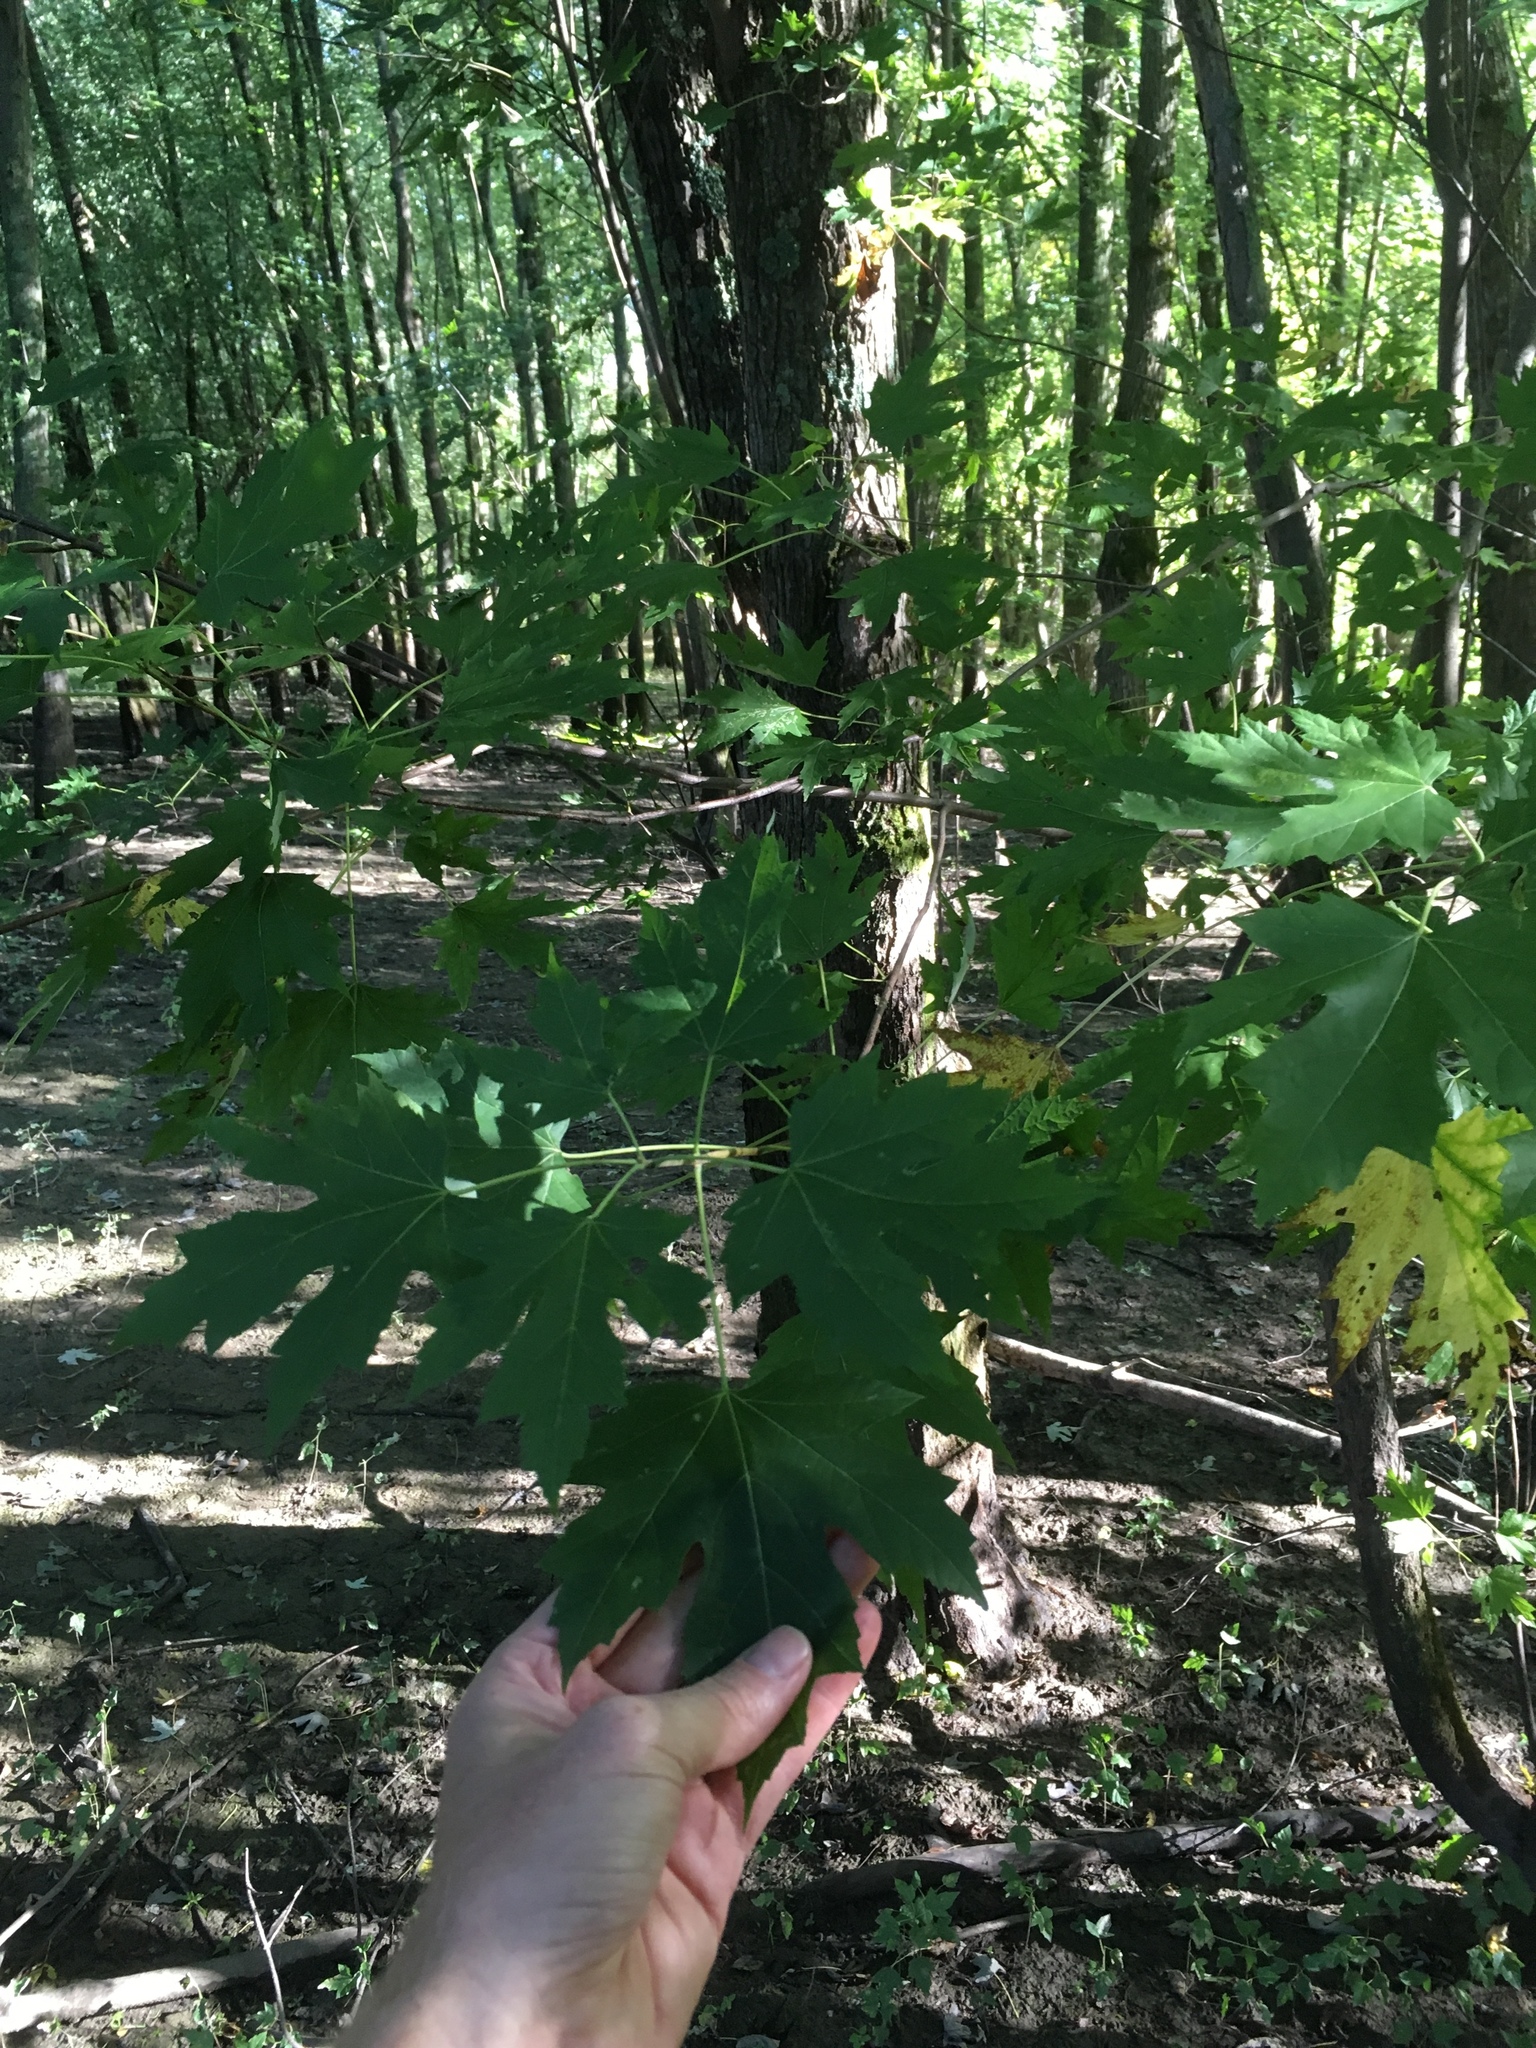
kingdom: Plantae
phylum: Tracheophyta
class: Magnoliopsida
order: Sapindales
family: Sapindaceae
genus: Acer
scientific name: Acer saccharinum
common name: Silver maple
